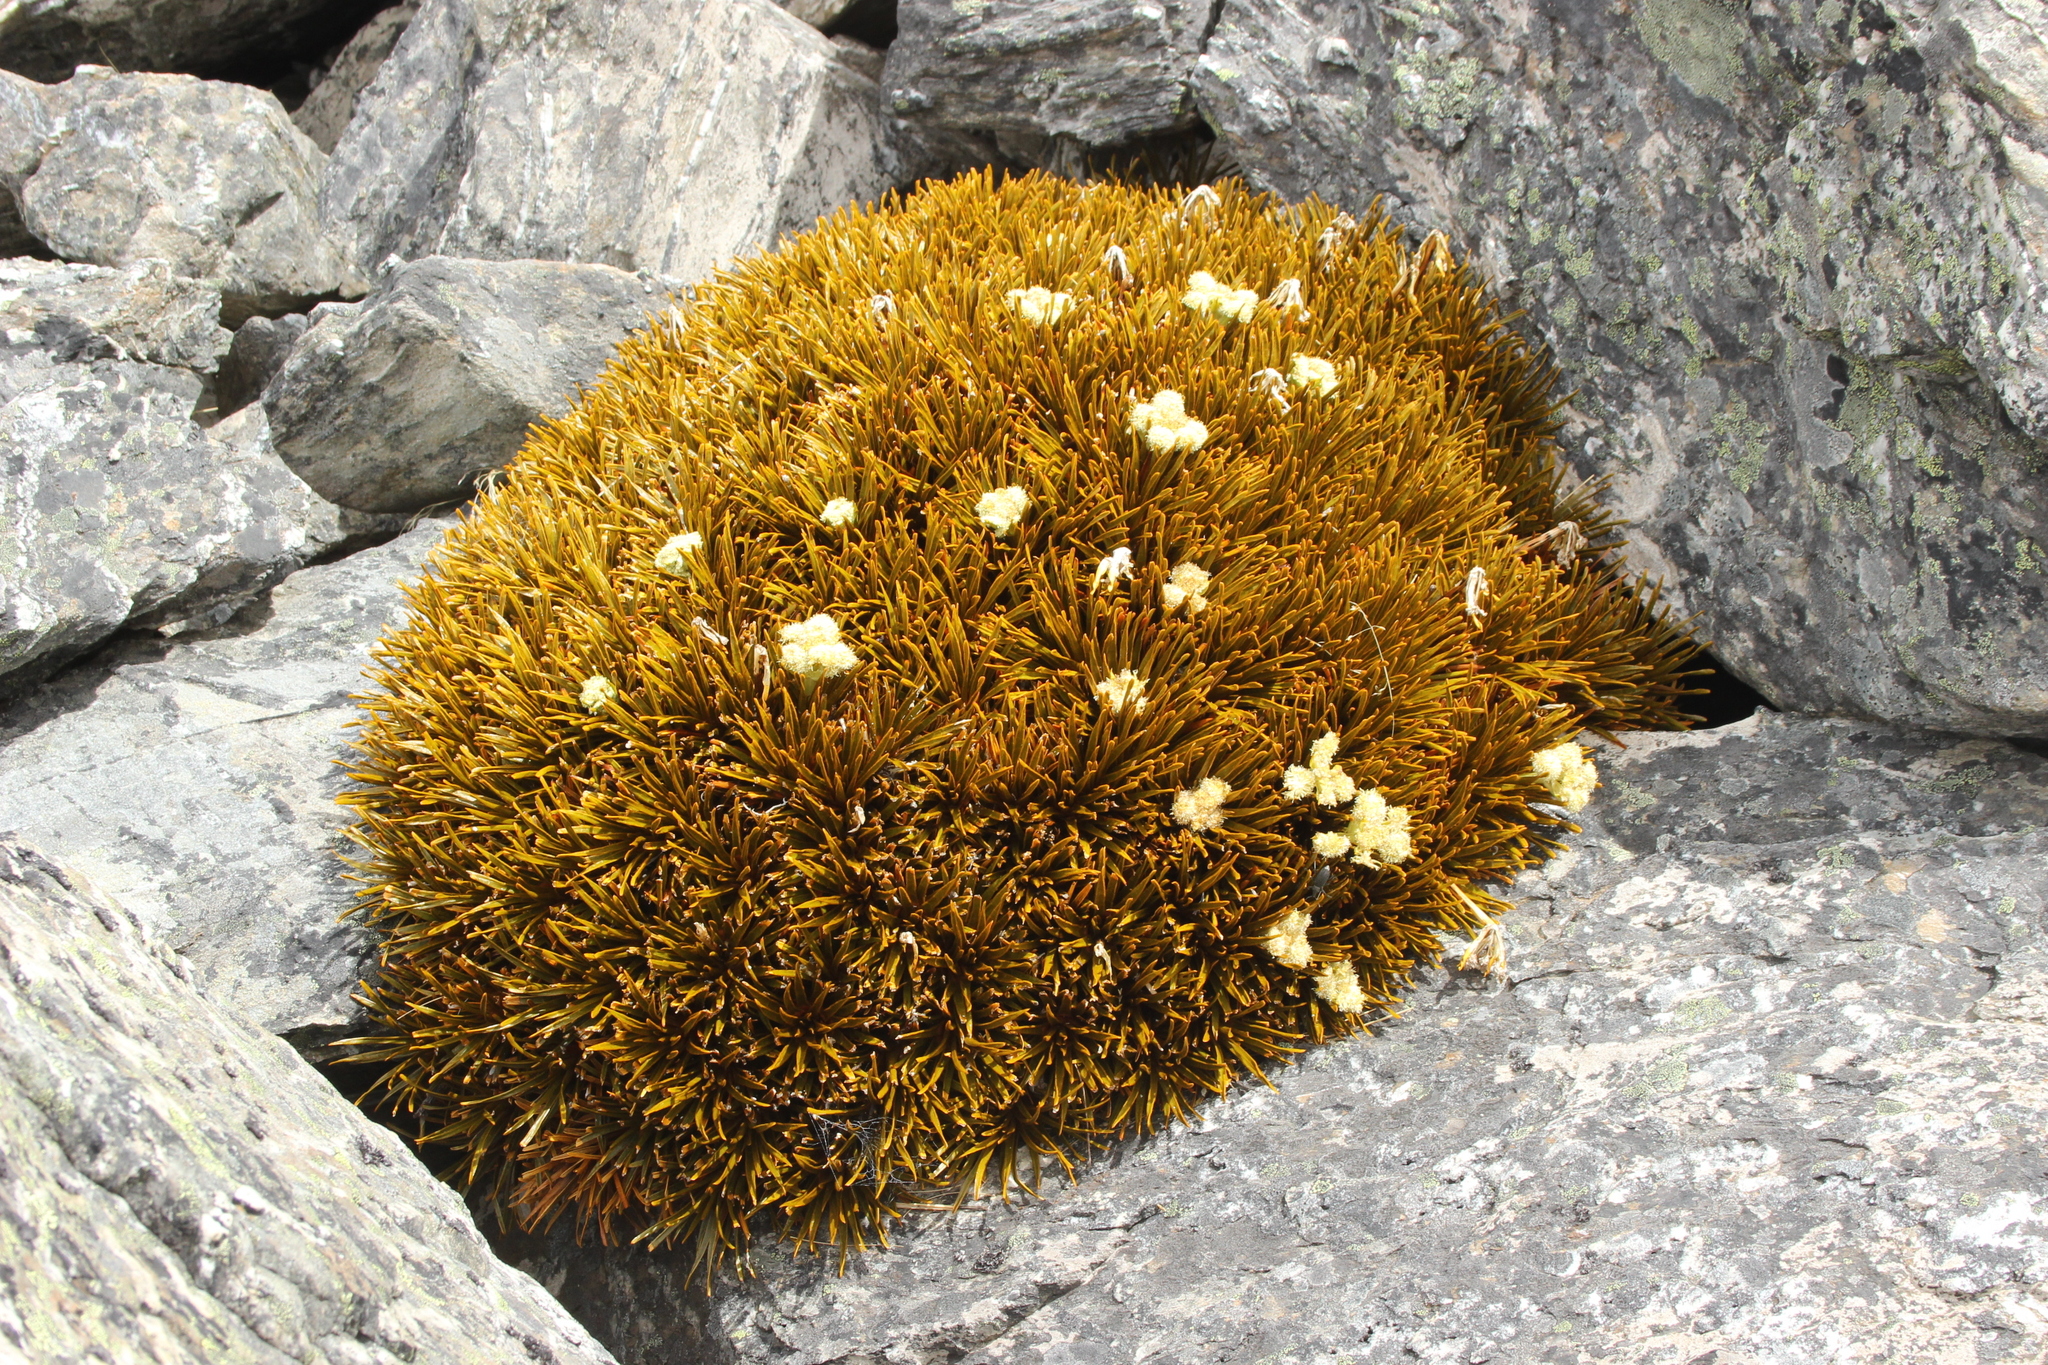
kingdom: Plantae
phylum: Tracheophyta
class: Magnoliopsida
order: Apiales
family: Apiaceae
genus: Aciphylla
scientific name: Aciphylla simplex
